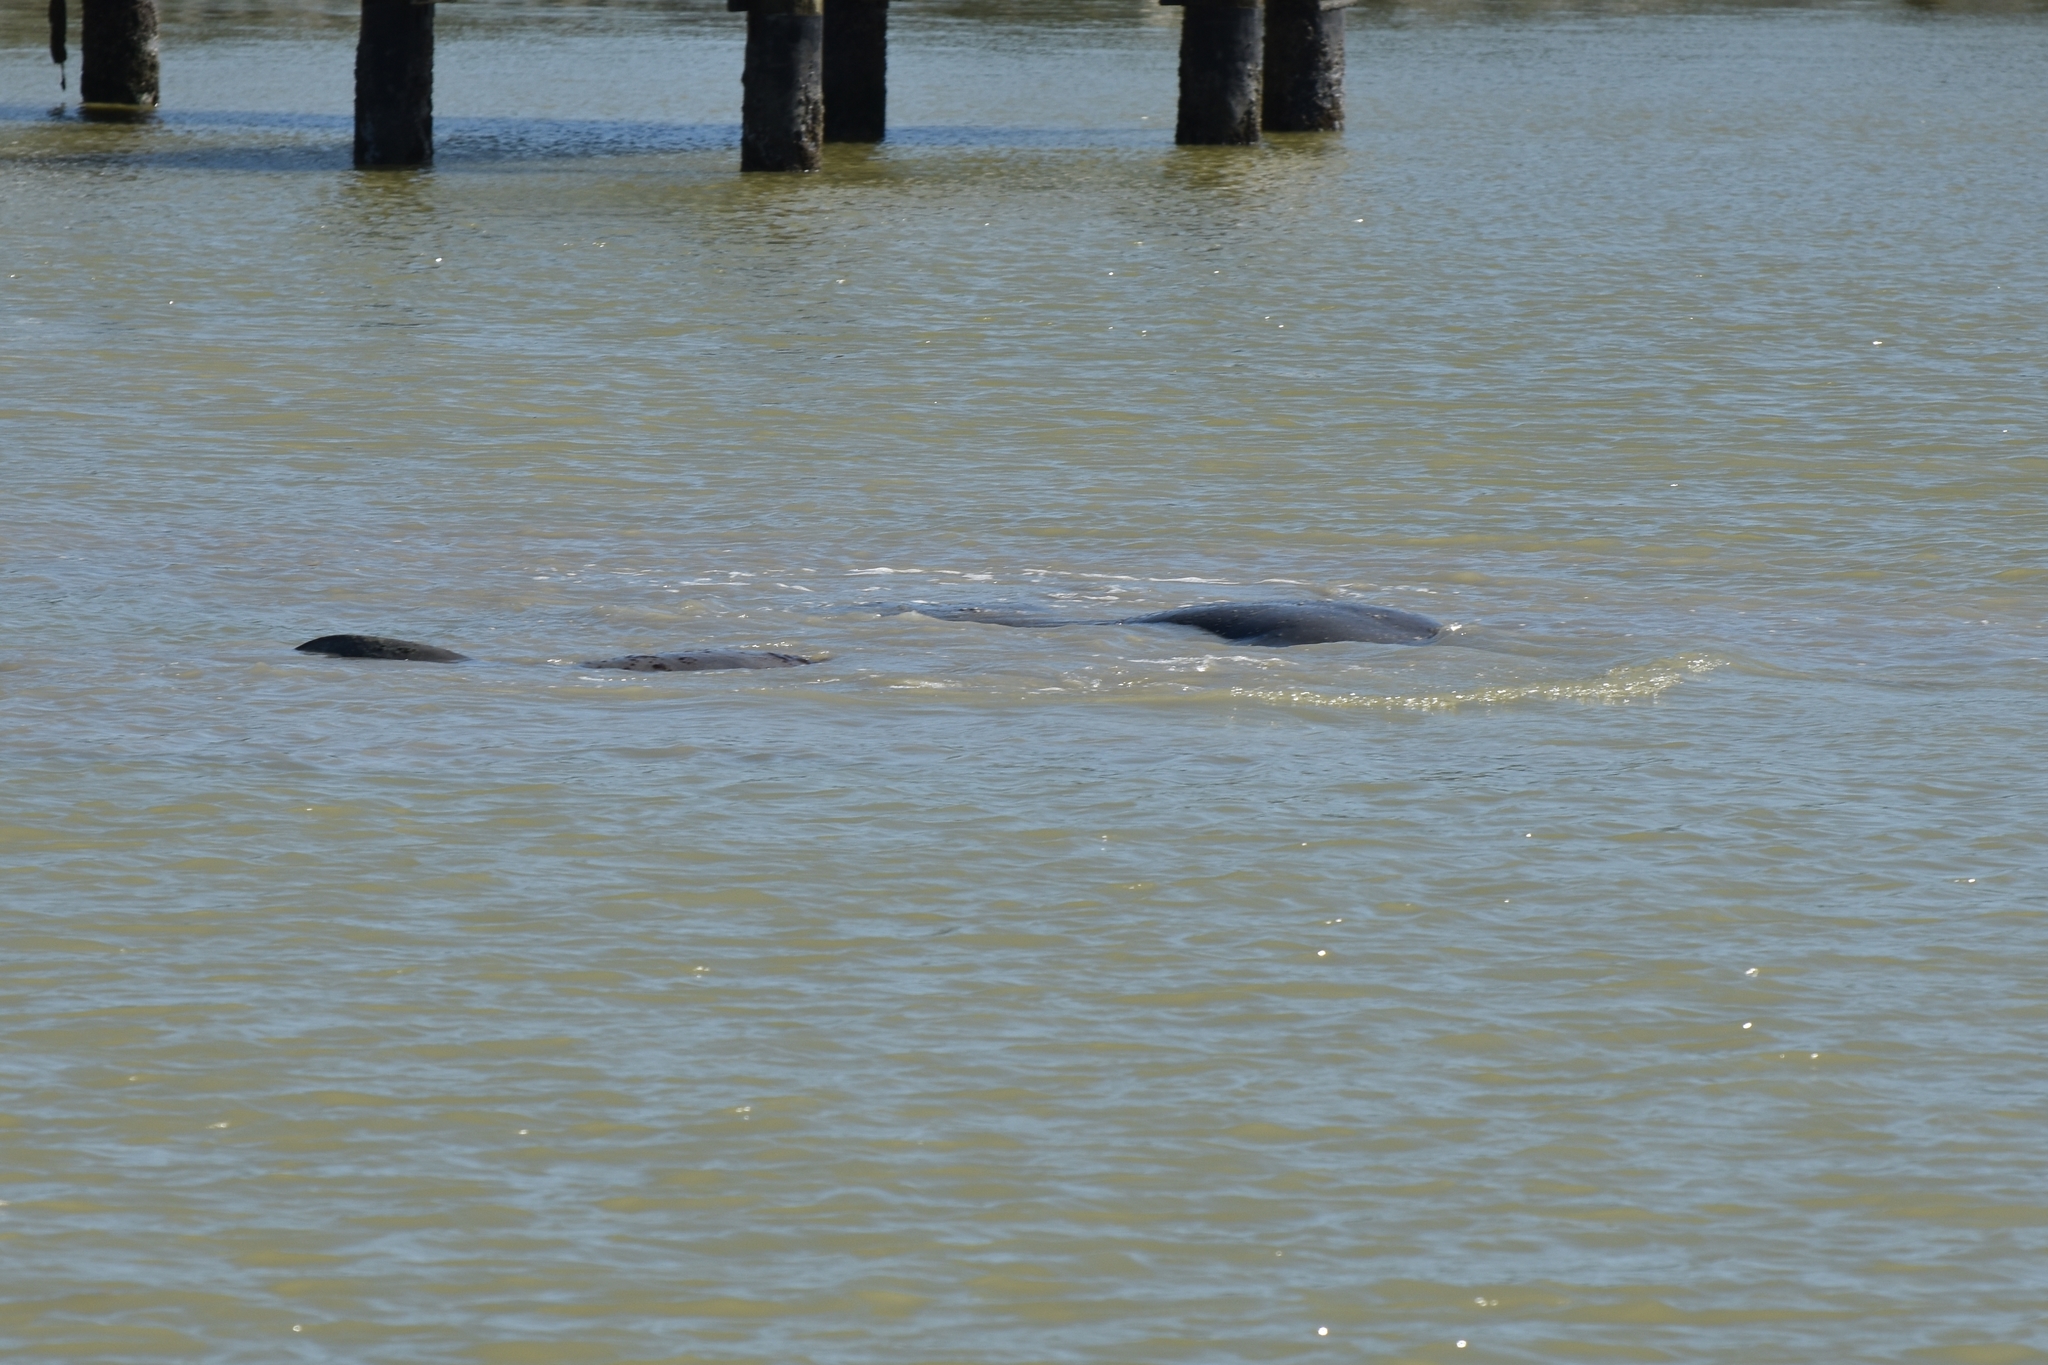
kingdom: Animalia
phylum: Chordata
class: Mammalia
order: Sirenia
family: Trichechidae
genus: Trichechus
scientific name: Trichechus manatus
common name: West indian manatee
